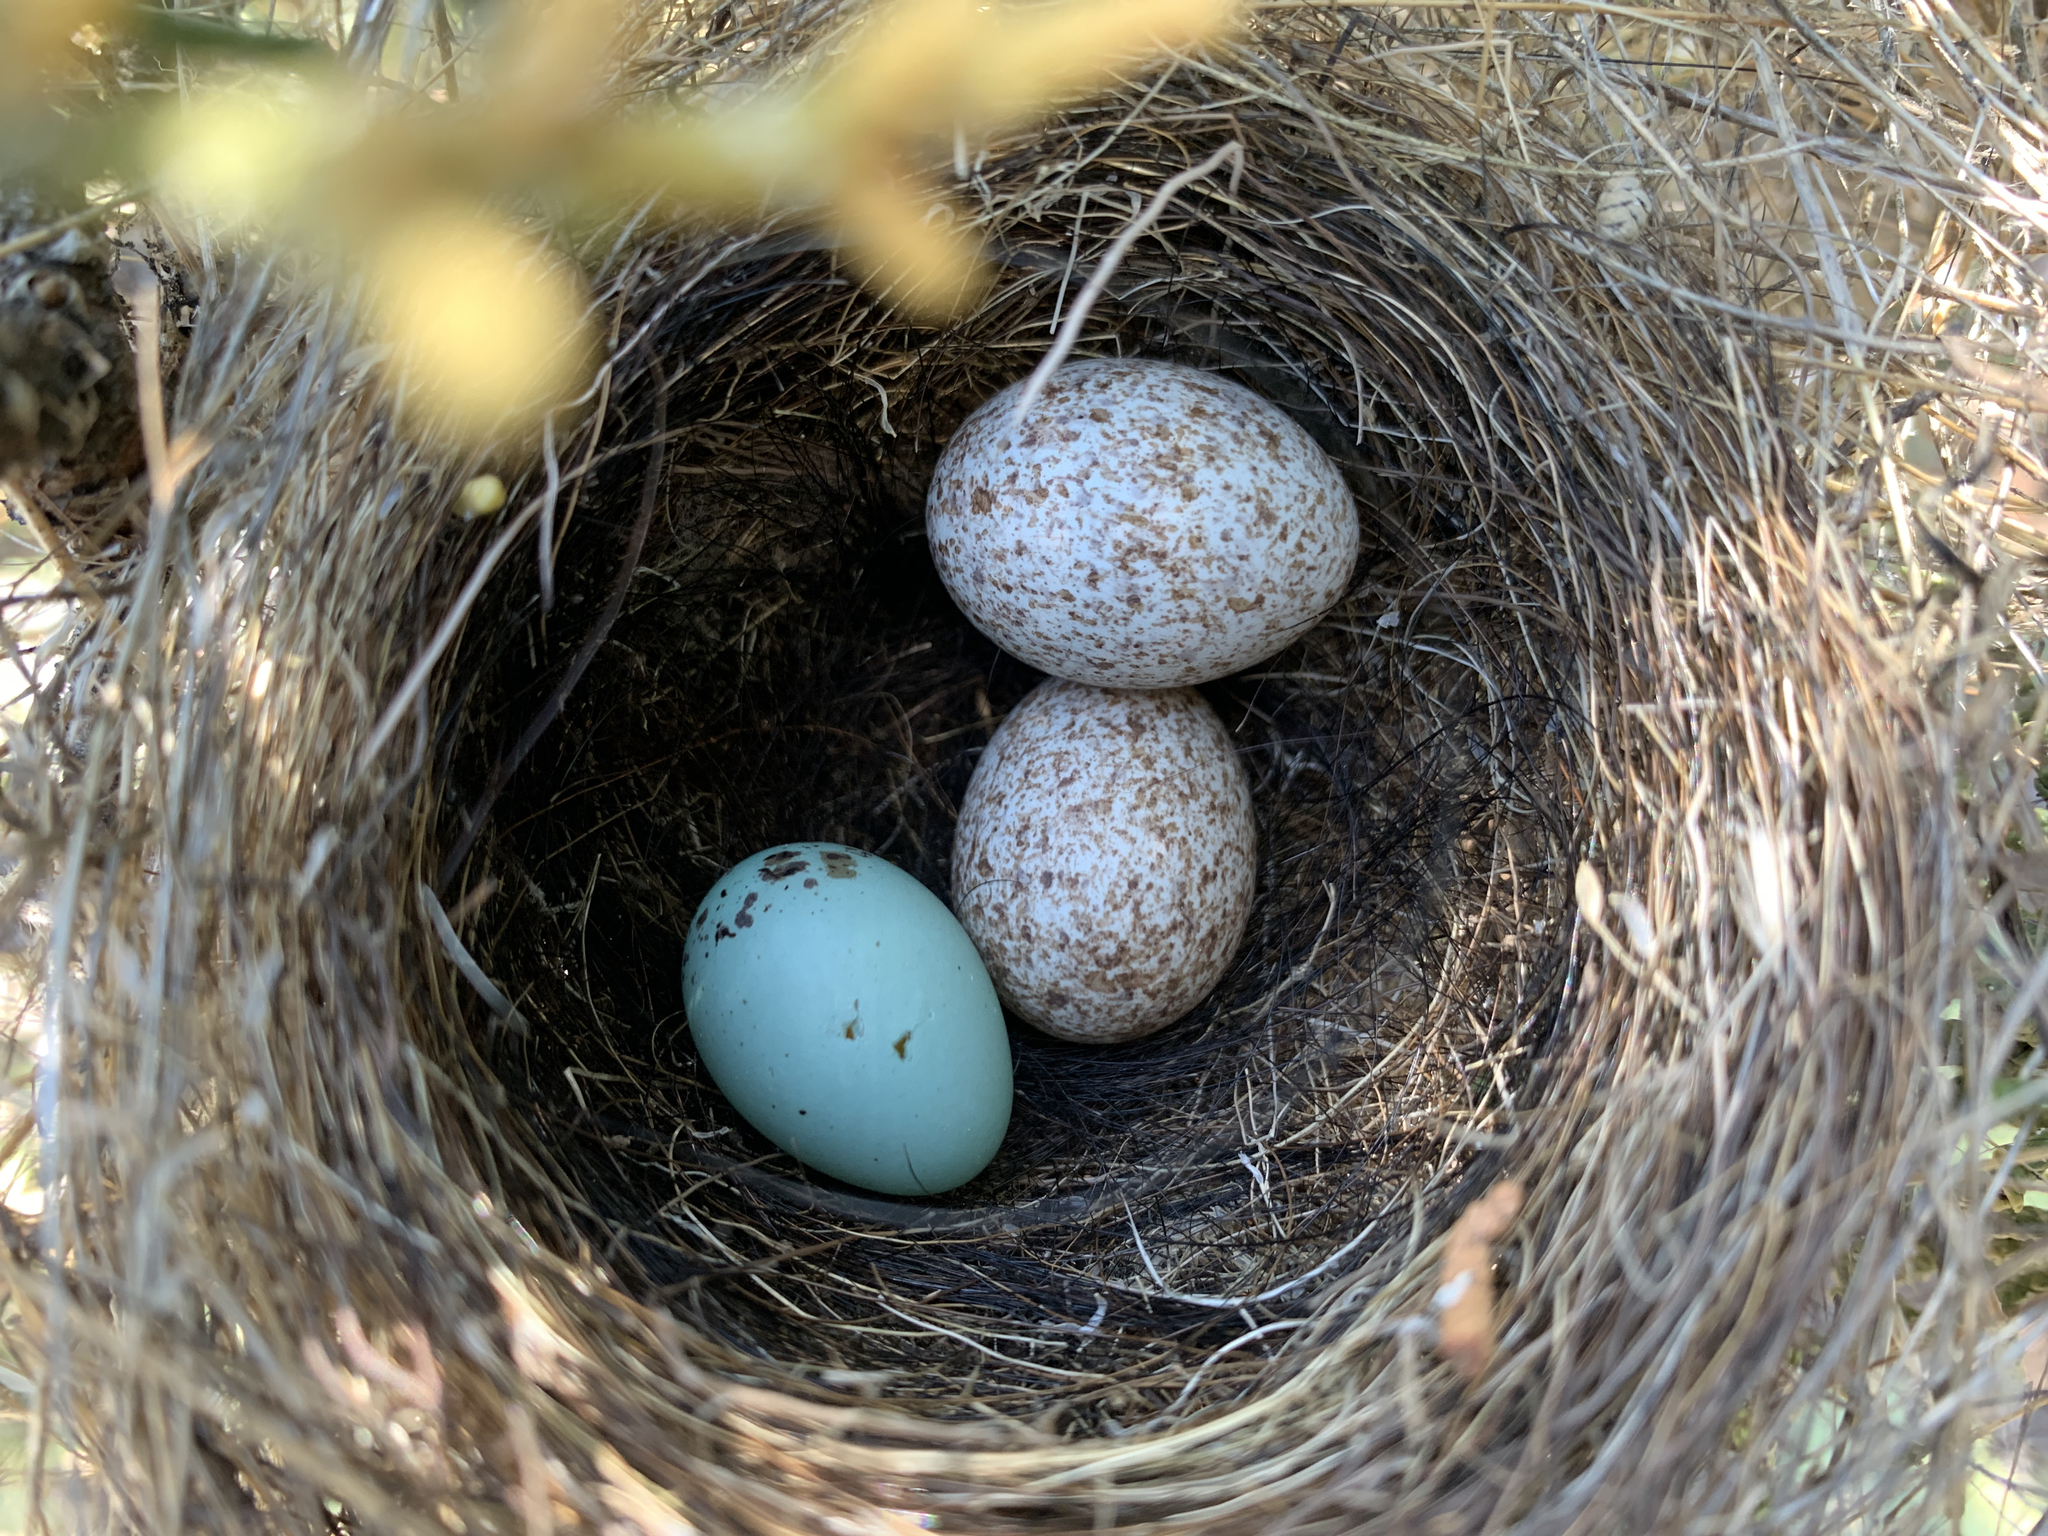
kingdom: Animalia
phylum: Chordata
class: Aves
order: Passeriformes
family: Icteridae
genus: Molothrus
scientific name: Molothrus ater
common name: Brown-headed cowbird
